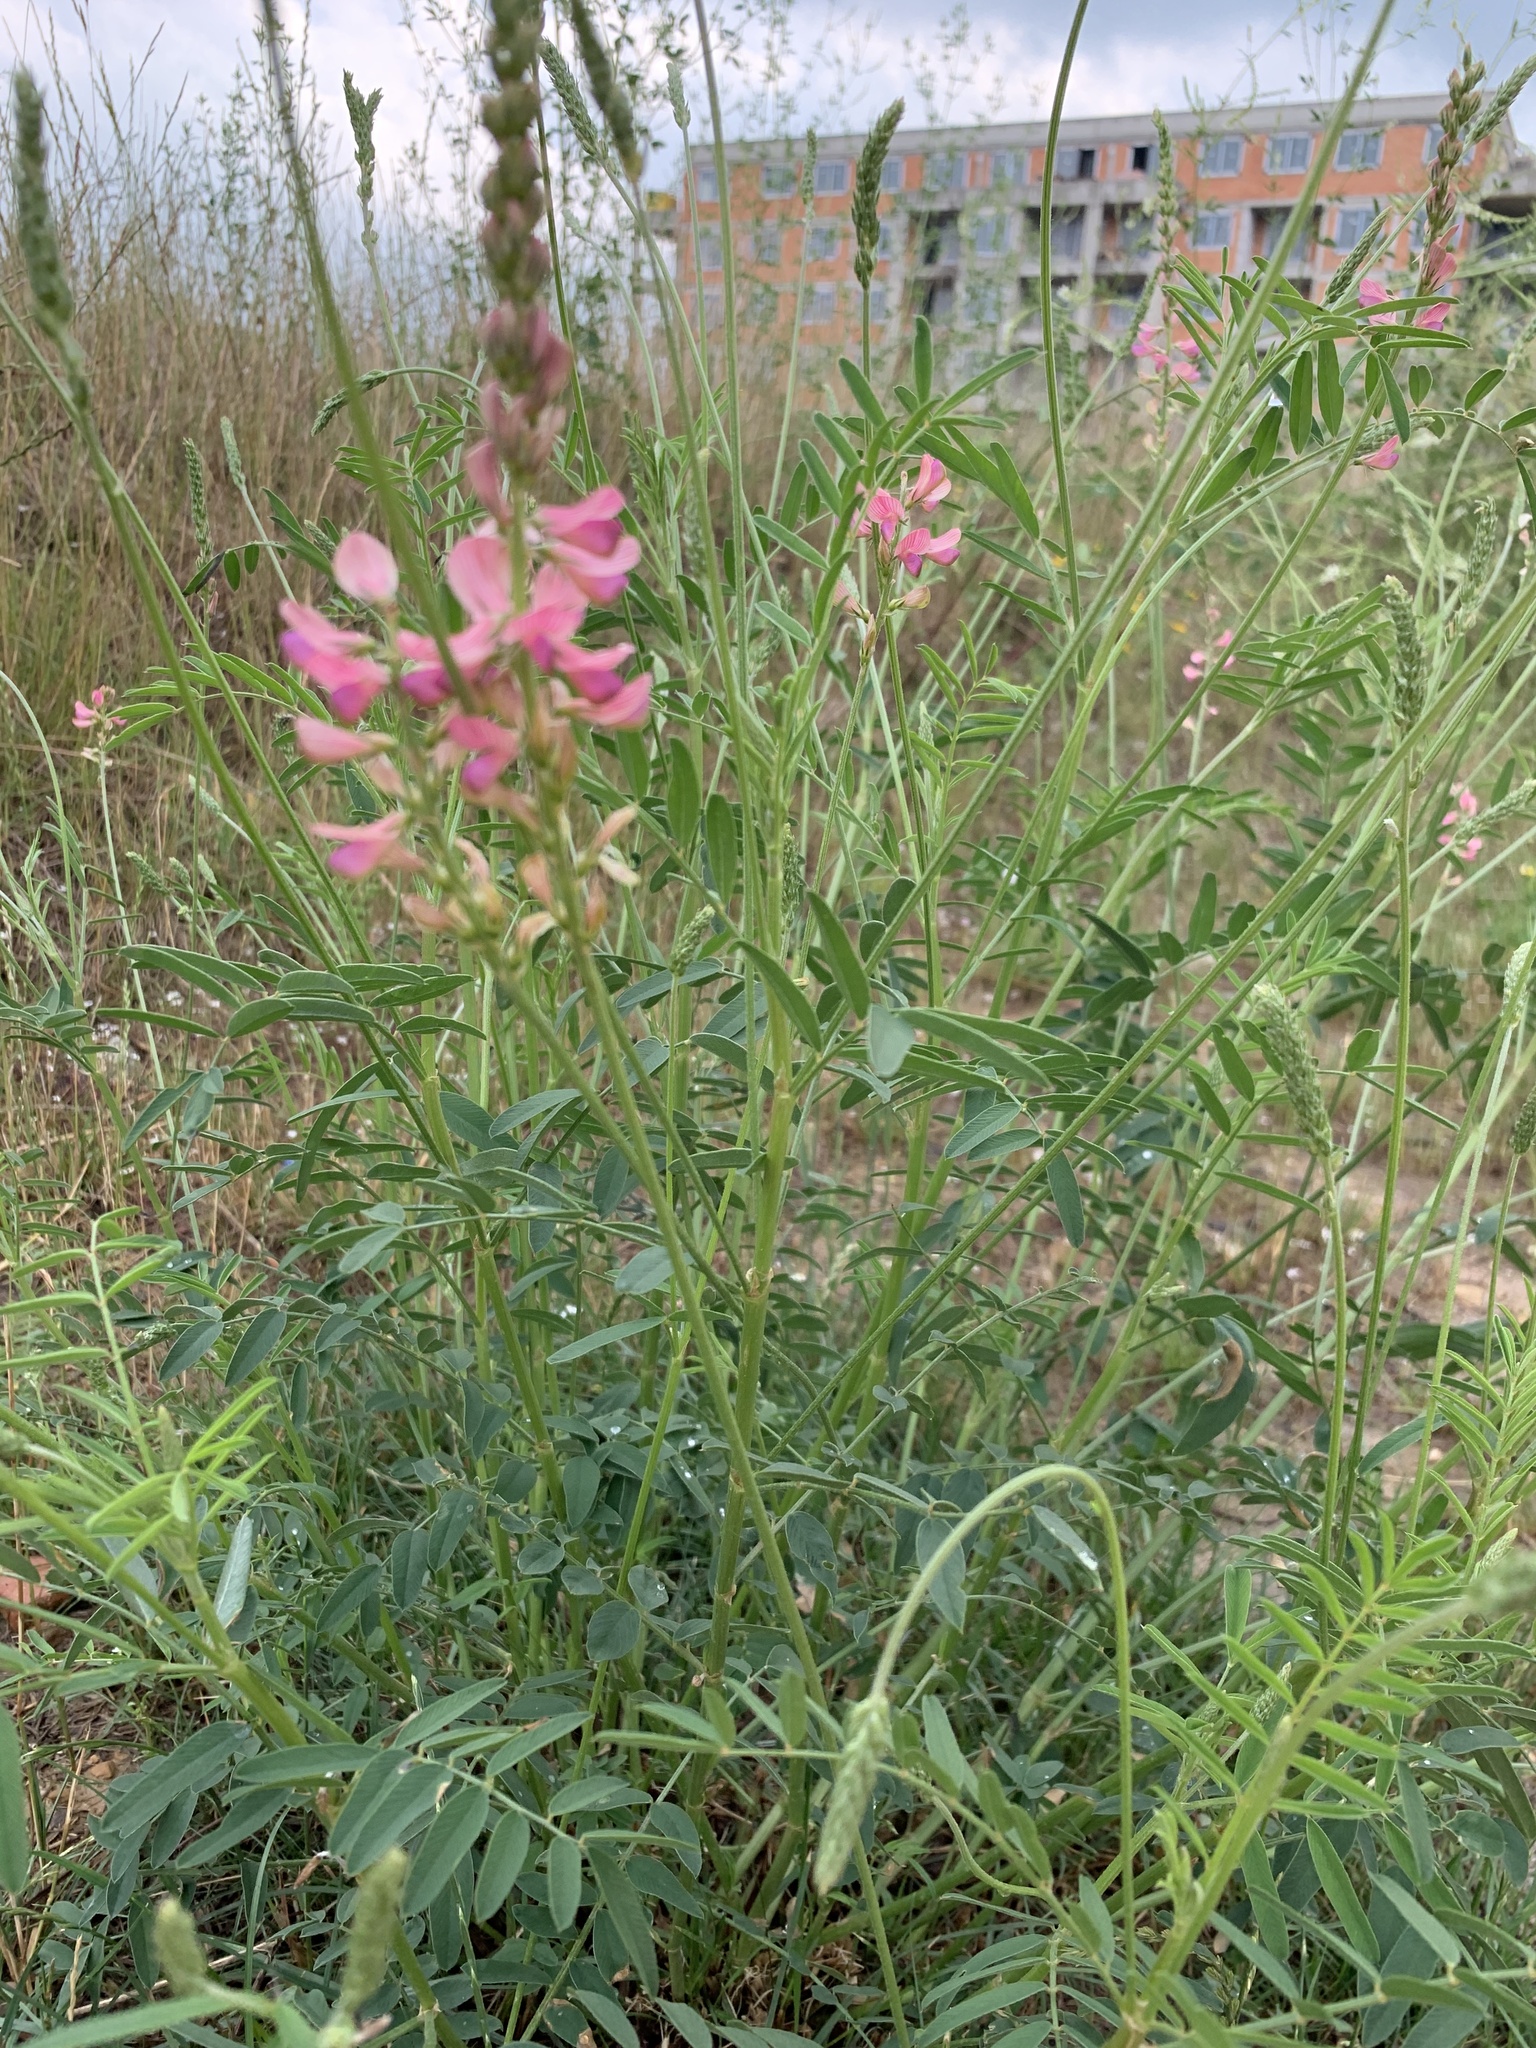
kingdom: Plantae
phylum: Tracheophyta
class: Magnoliopsida
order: Fabales
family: Fabaceae
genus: Onobrychis
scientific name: Onobrychis viciifolia
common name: Sainfoin
